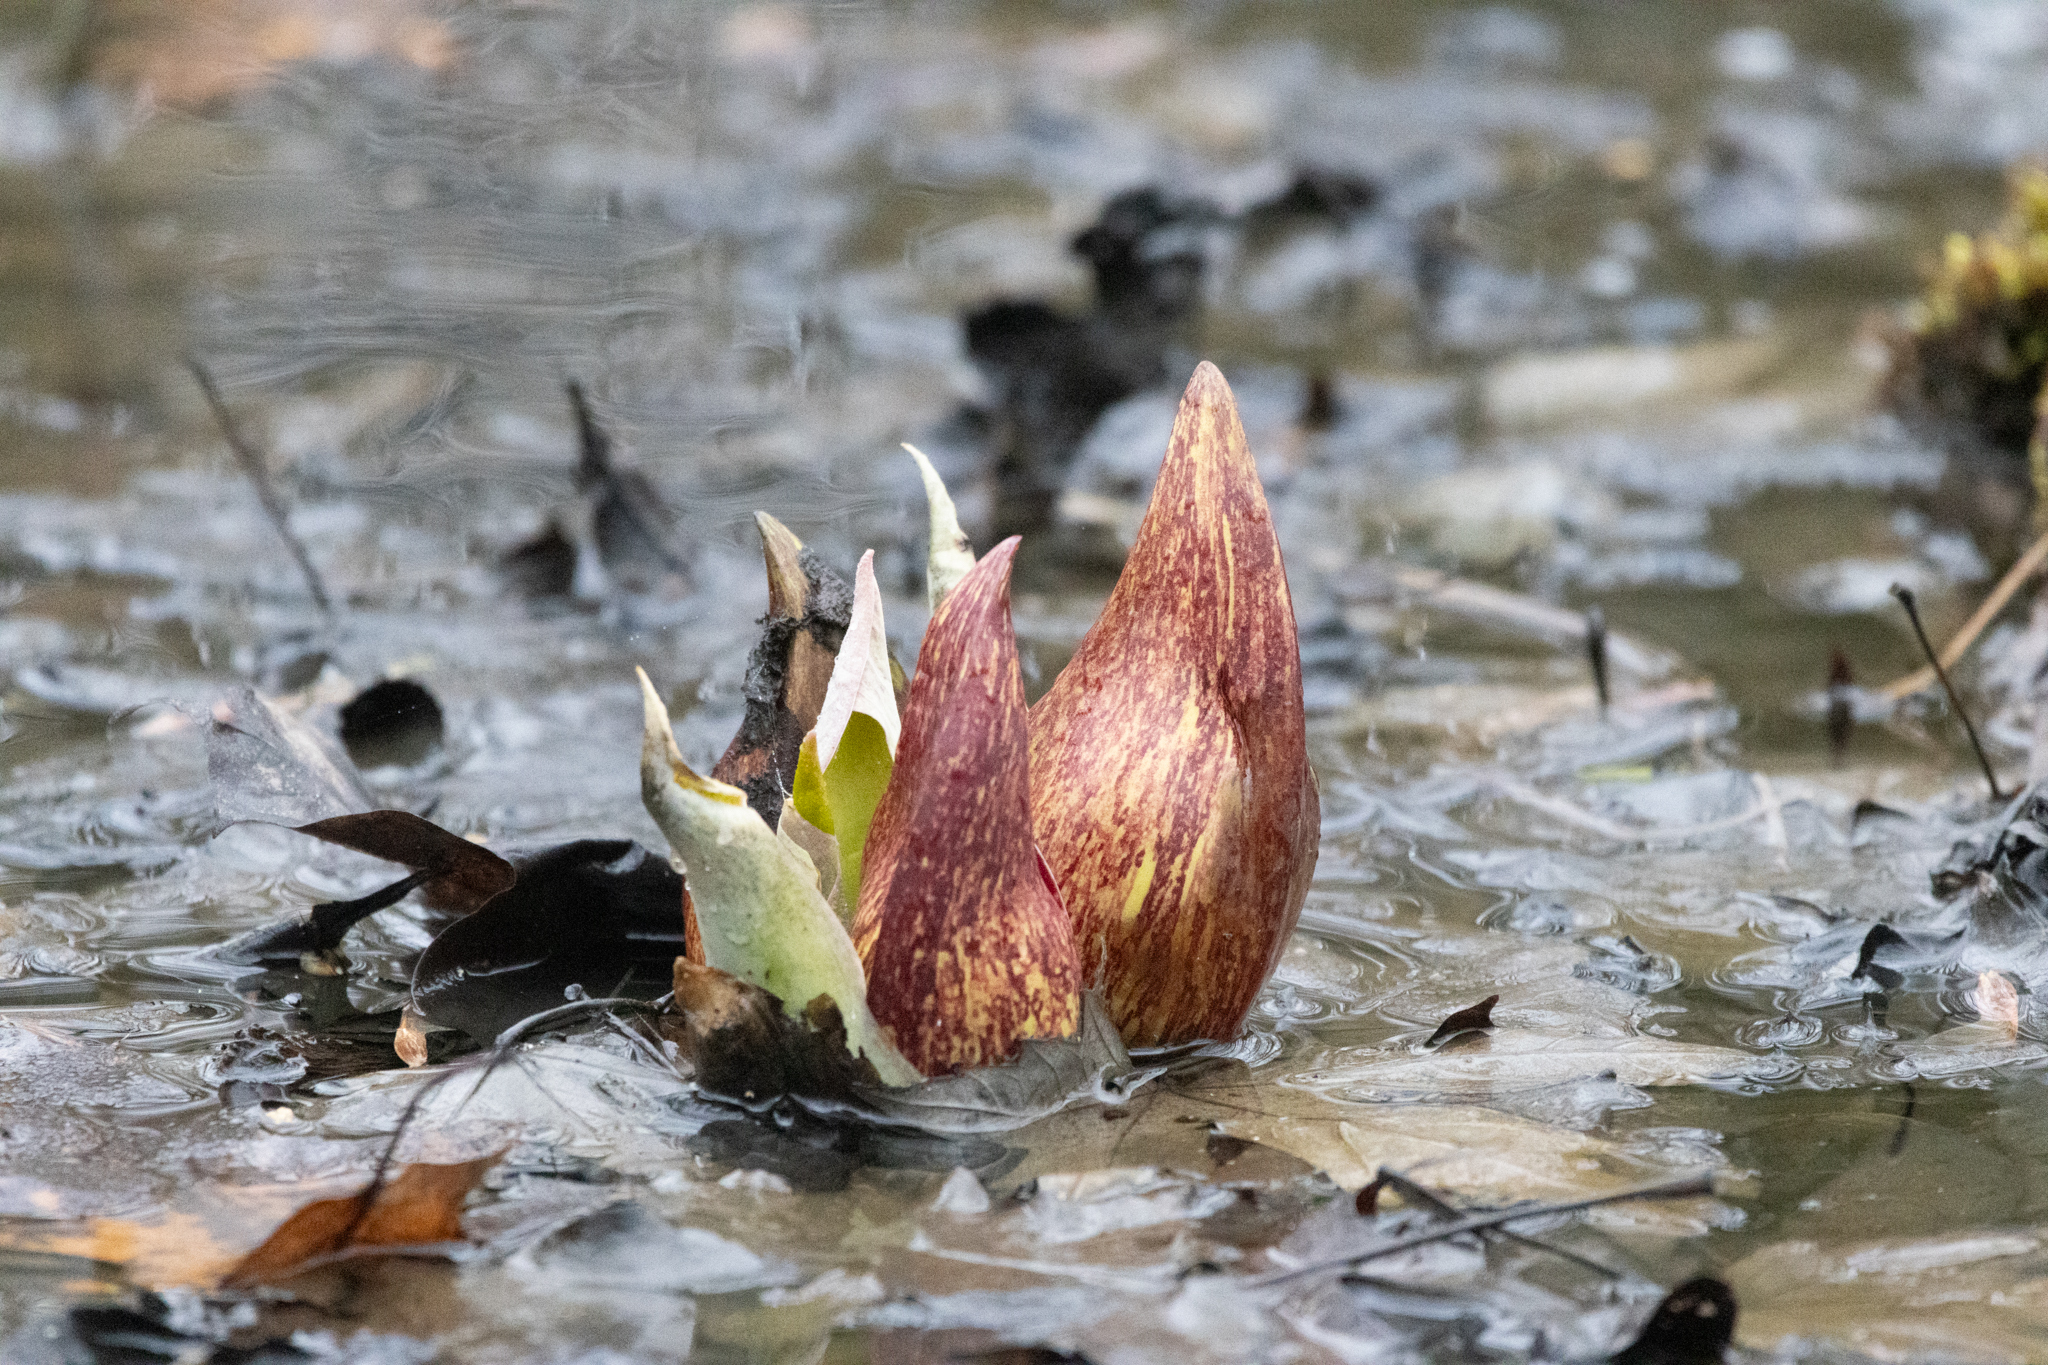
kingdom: Plantae
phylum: Tracheophyta
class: Liliopsida
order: Alismatales
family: Araceae
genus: Symplocarpus
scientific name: Symplocarpus foetidus
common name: Eastern skunk cabbage
